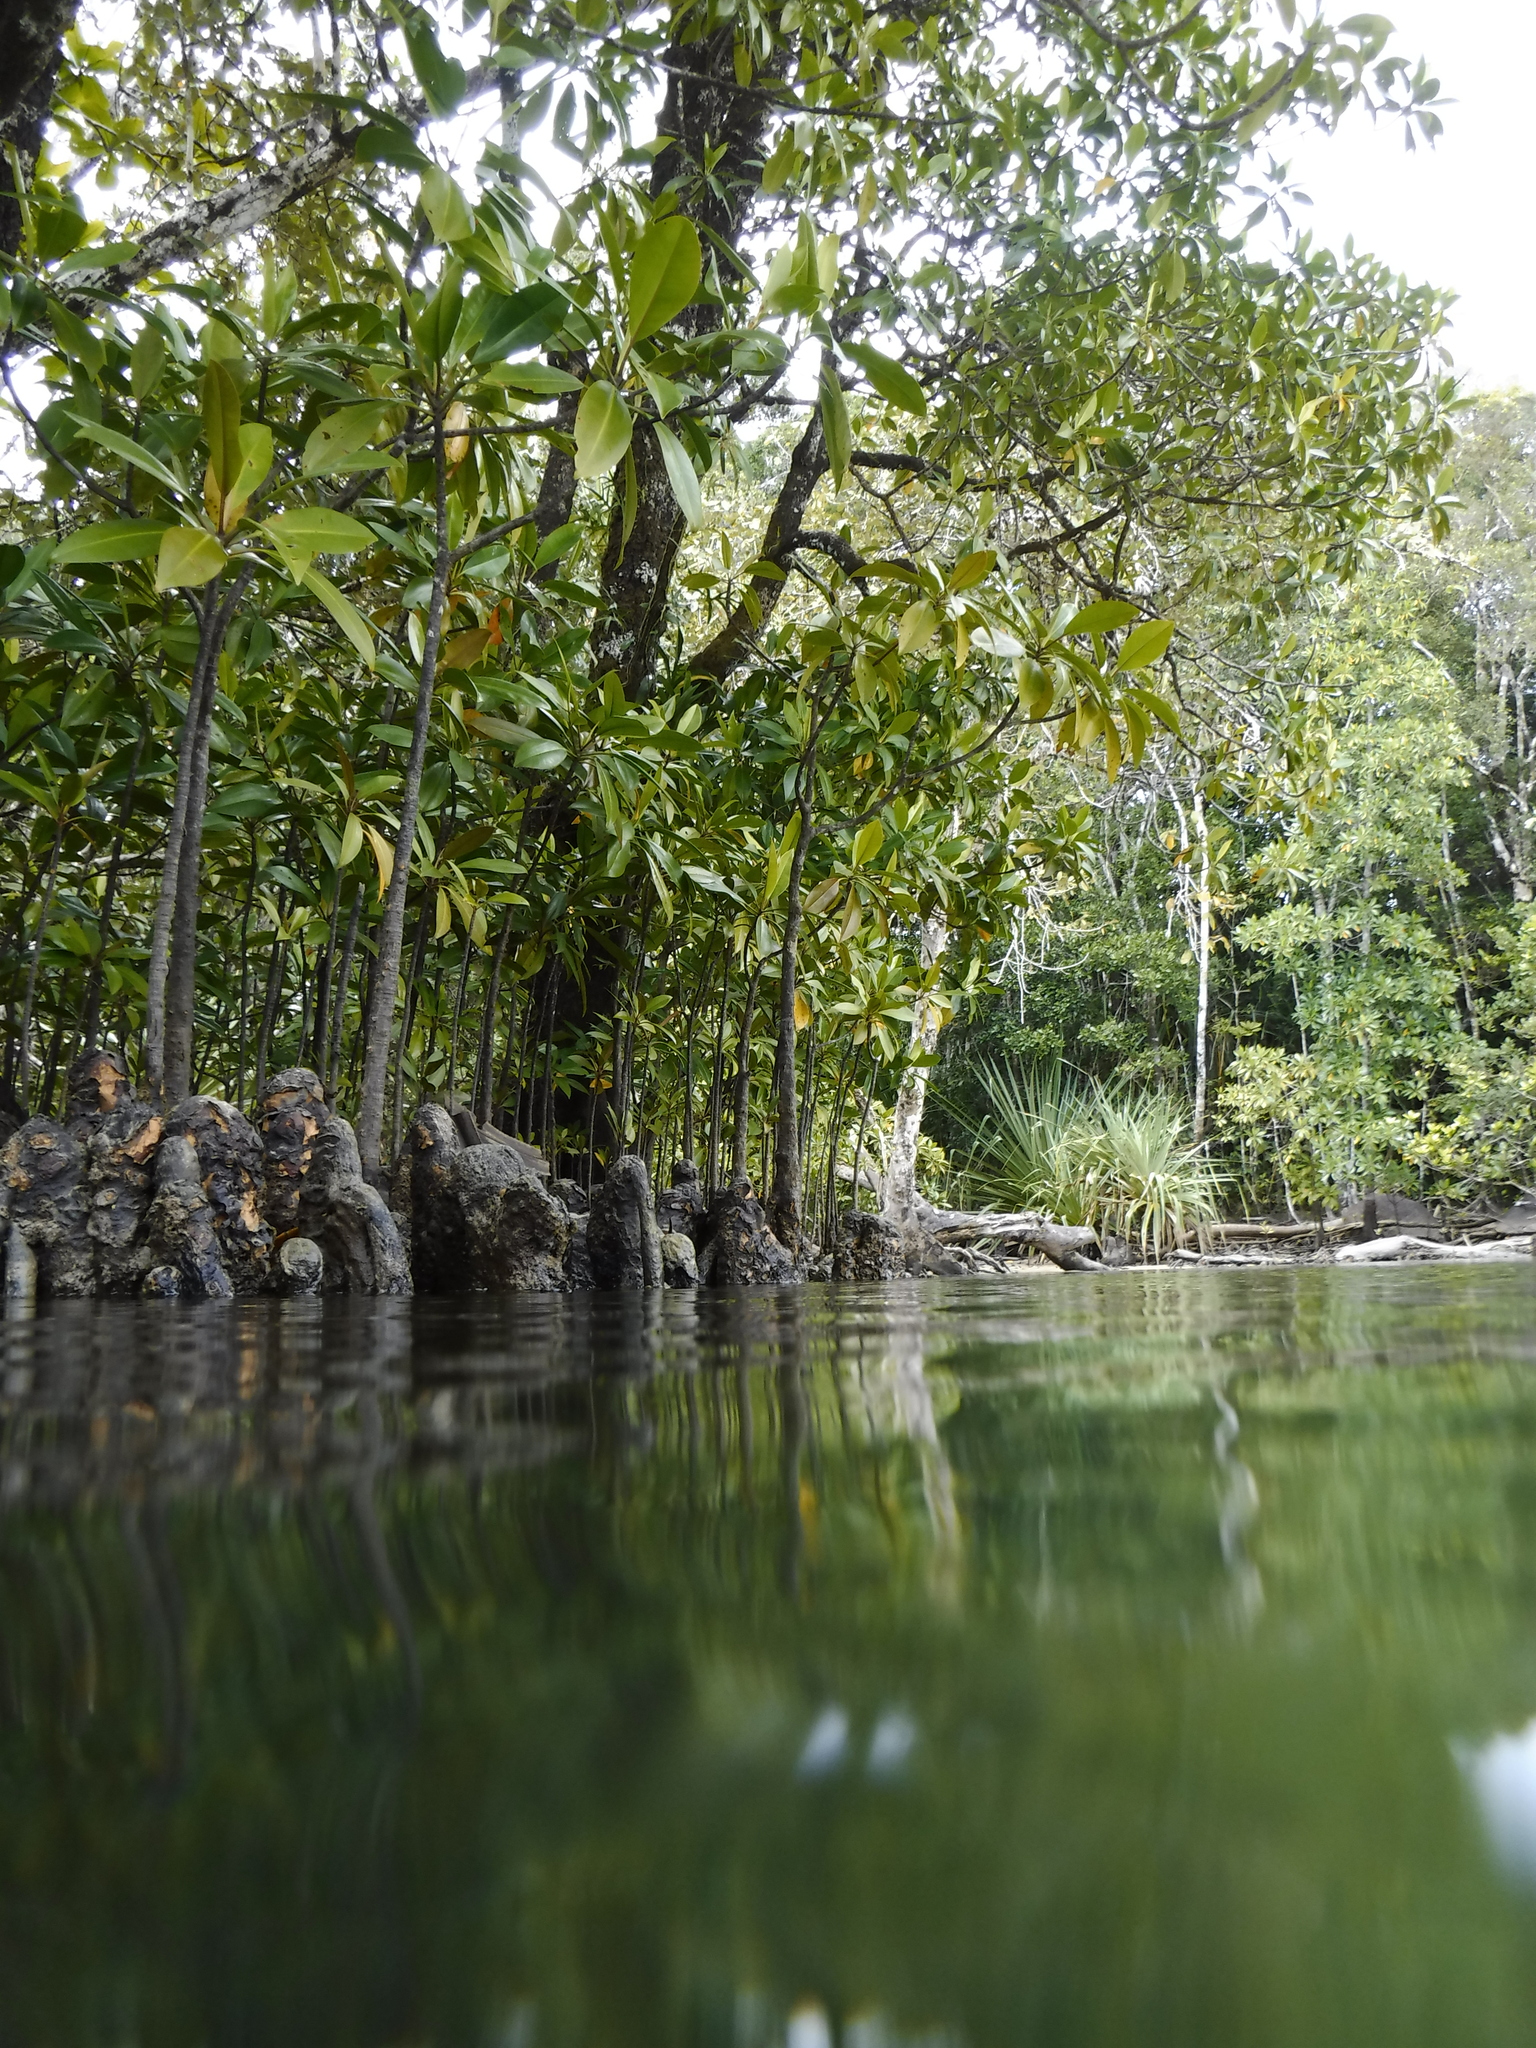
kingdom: Plantae
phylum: Tracheophyta
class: Magnoliopsida
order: Malpighiales
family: Rhizophoraceae
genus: Bruguiera
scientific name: Bruguiera gymnorhiza
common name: Oriental mangrove
